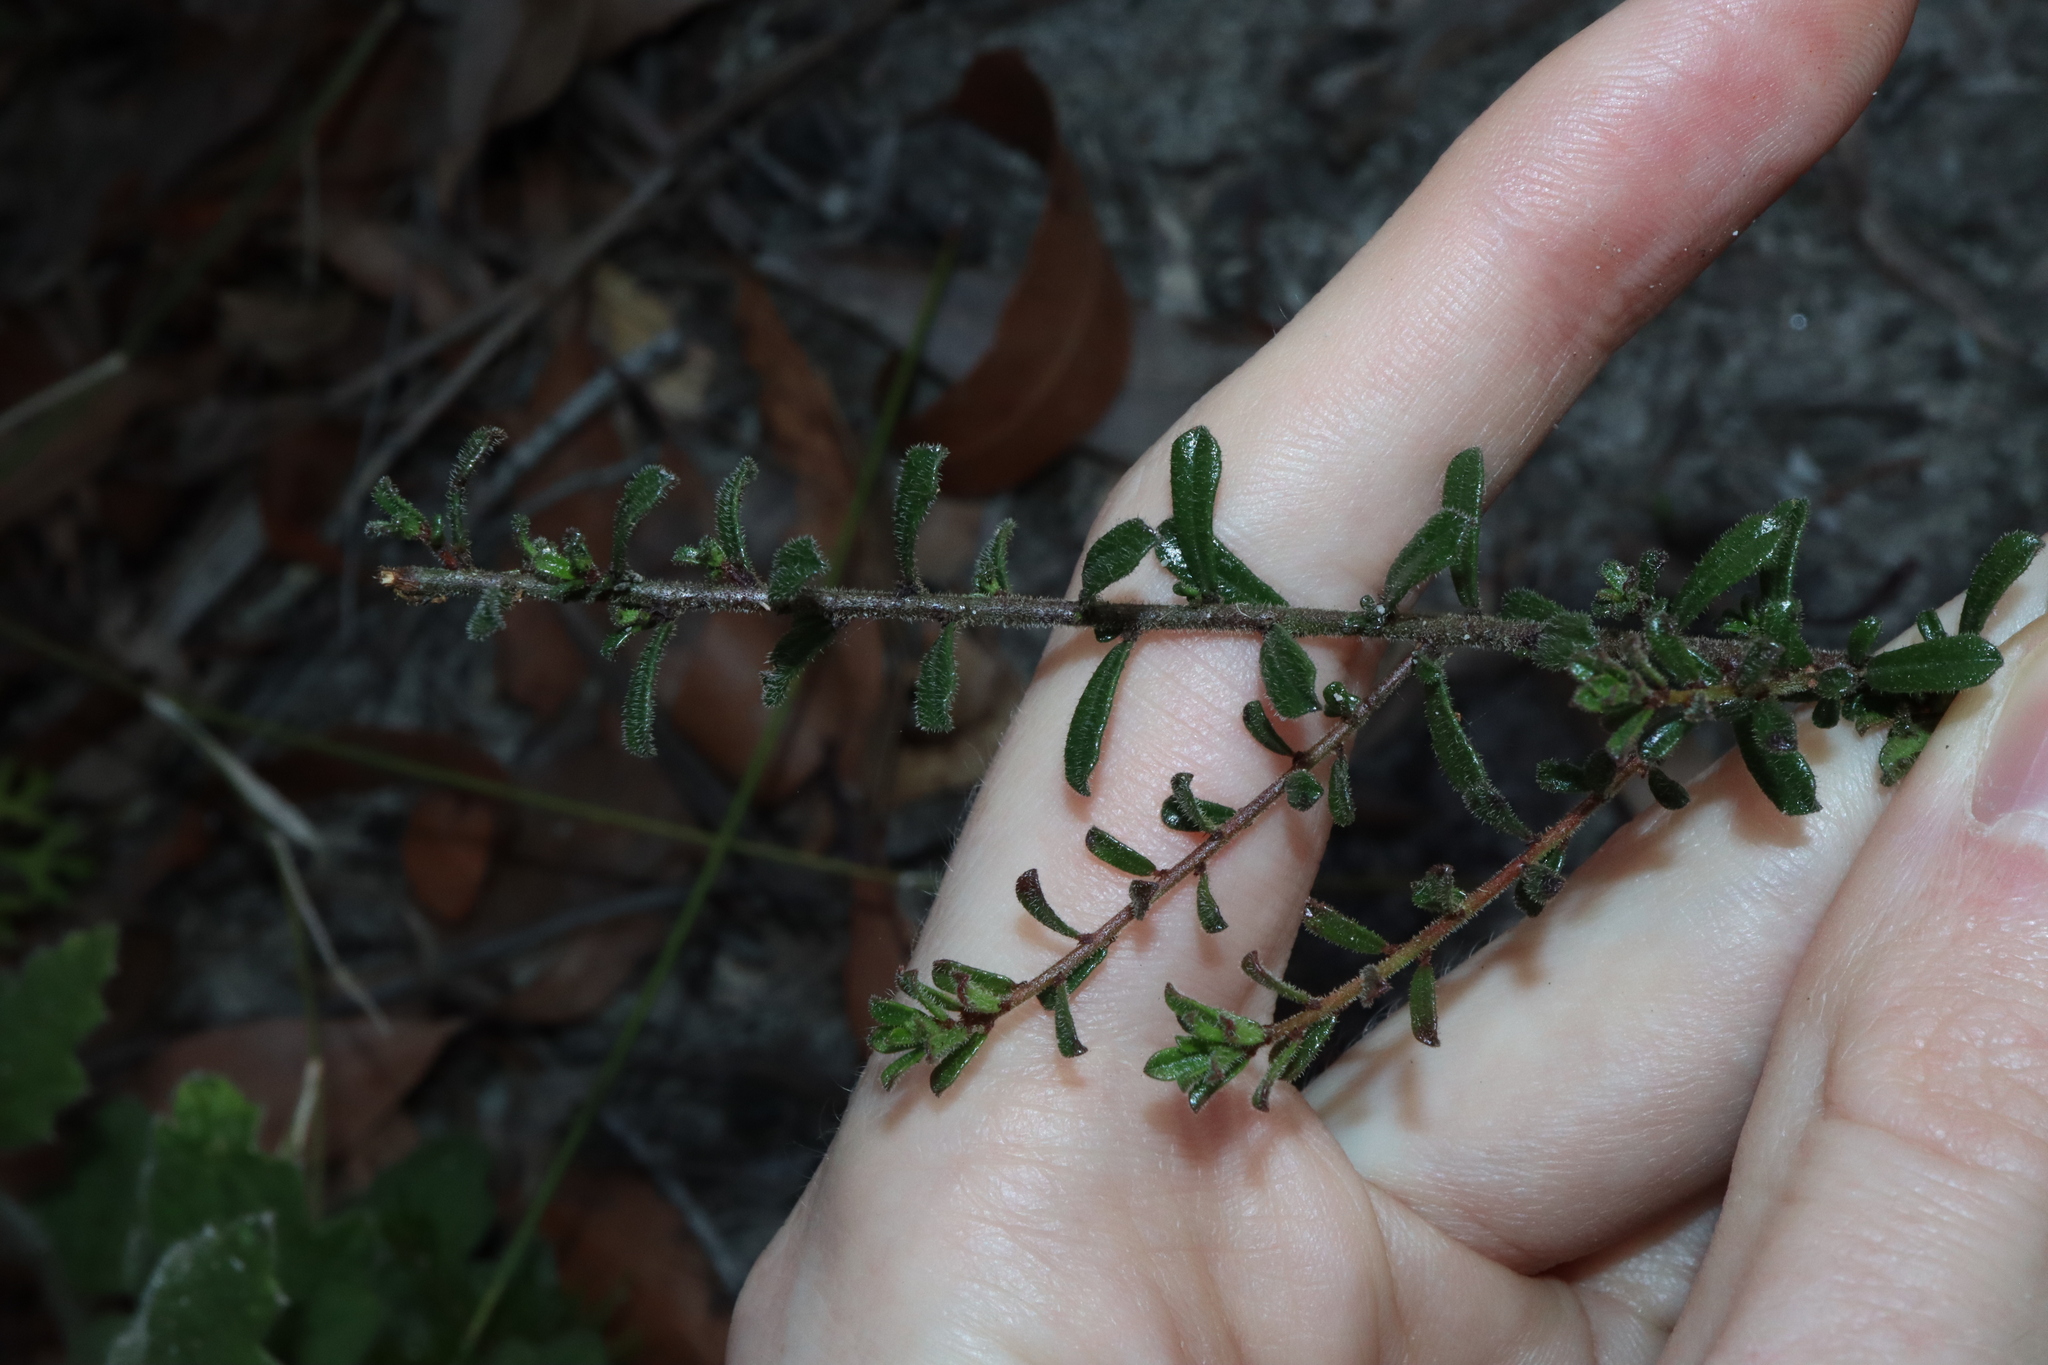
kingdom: Plantae
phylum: Tracheophyta
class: Magnoliopsida
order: Malpighiales
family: Phyllanthaceae
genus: Phyllanthus
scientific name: Phyllanthus hirtellus
